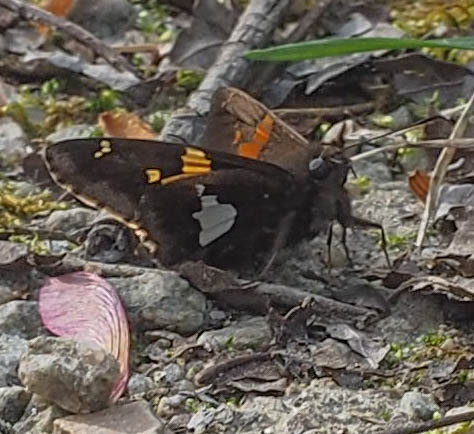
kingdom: Animalia
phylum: Arthropoda
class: Insecta
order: Lepidoptera
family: Hesperiidae
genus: Epargyreus
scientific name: Epargyreus clarus
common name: Silver-spotted skipper
